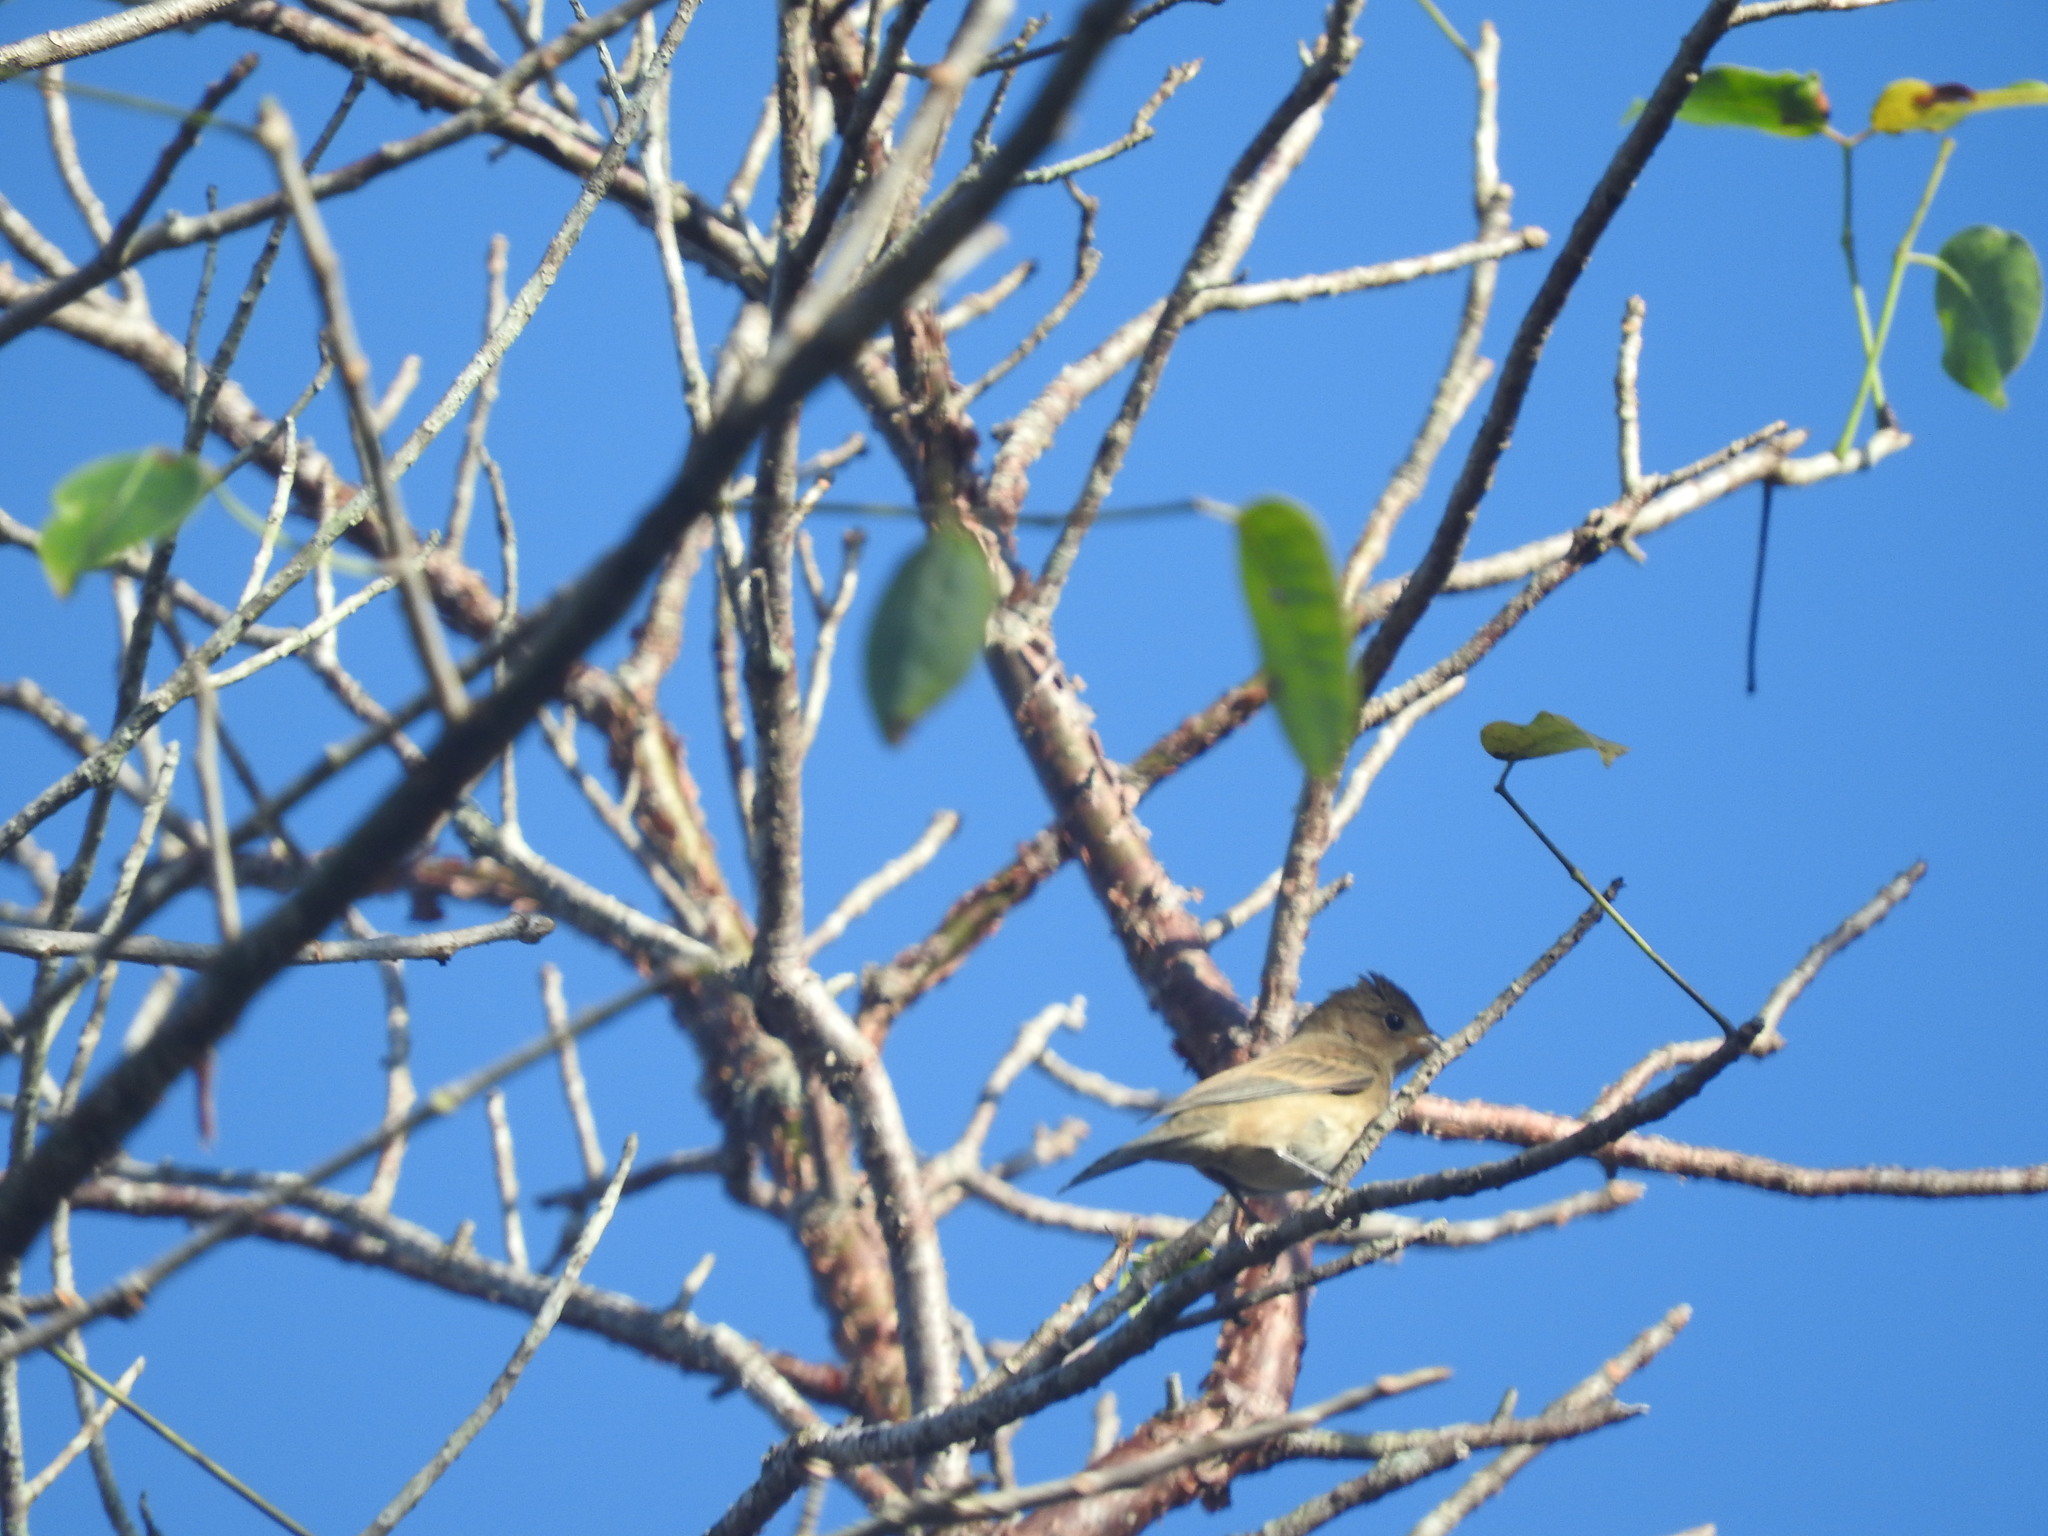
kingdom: Animalia
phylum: Chordata
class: Aves
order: Passeriformes
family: Cardinalidae
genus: Passerina
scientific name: Passerina cyanea
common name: Indigo bunting
